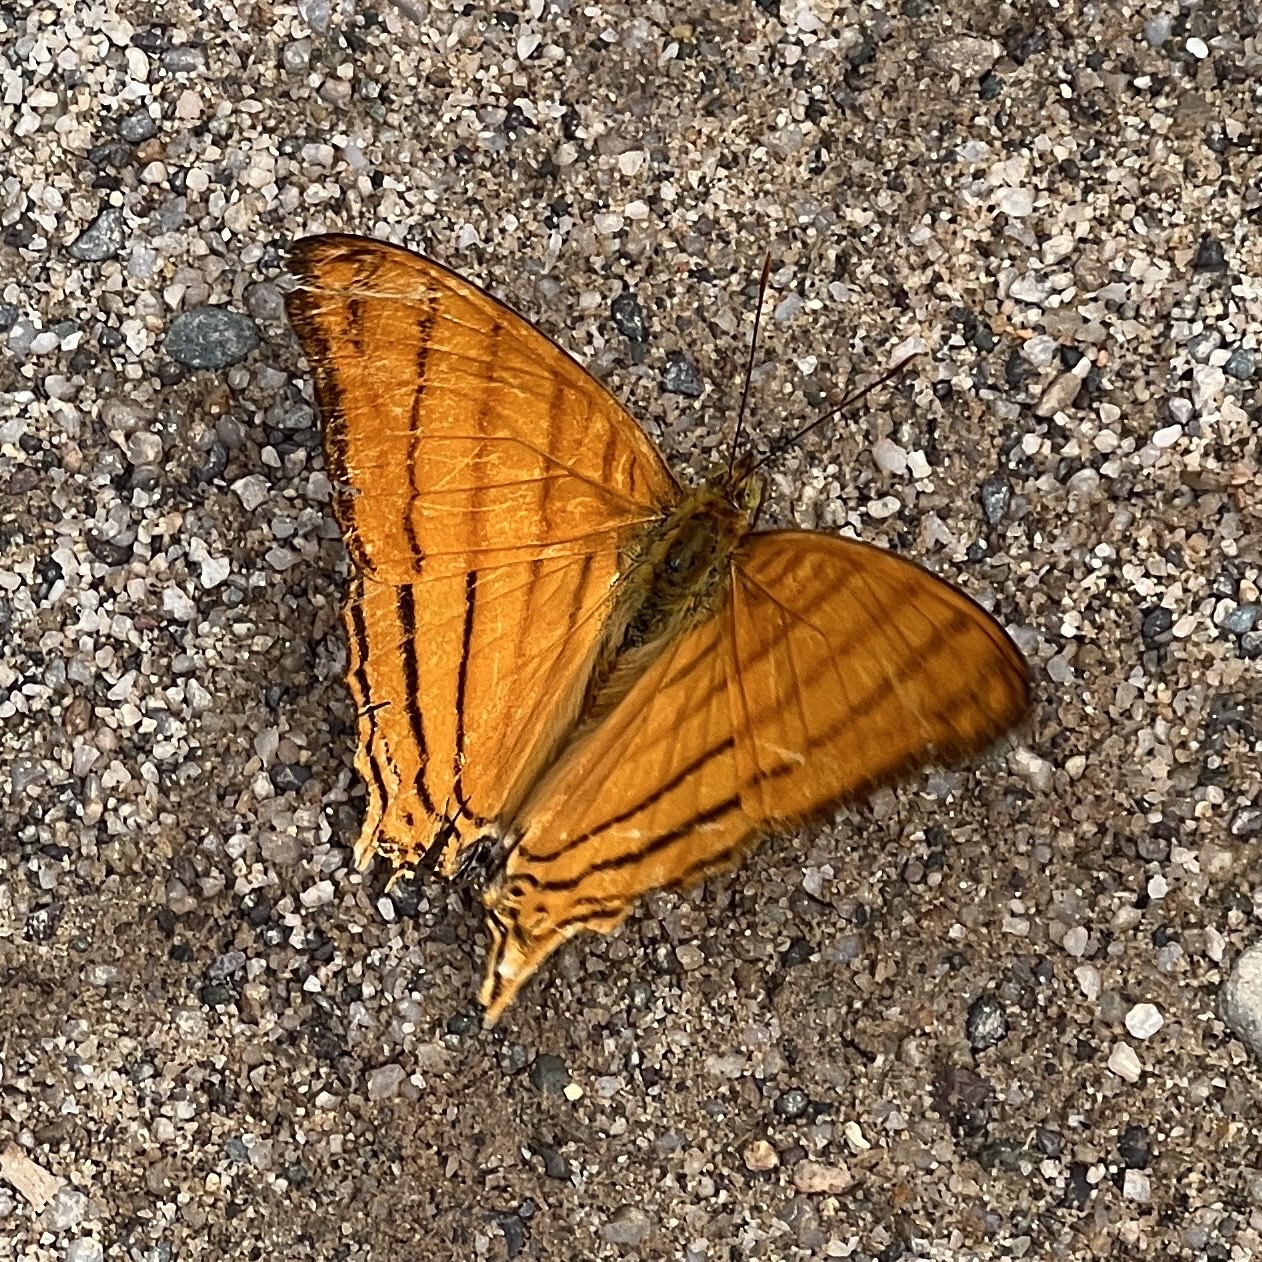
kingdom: Animalia
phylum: Arthropoda
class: Insecta
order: Lepidoptera
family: Nymphalidae
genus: Marpesia
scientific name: Marpesia berania
